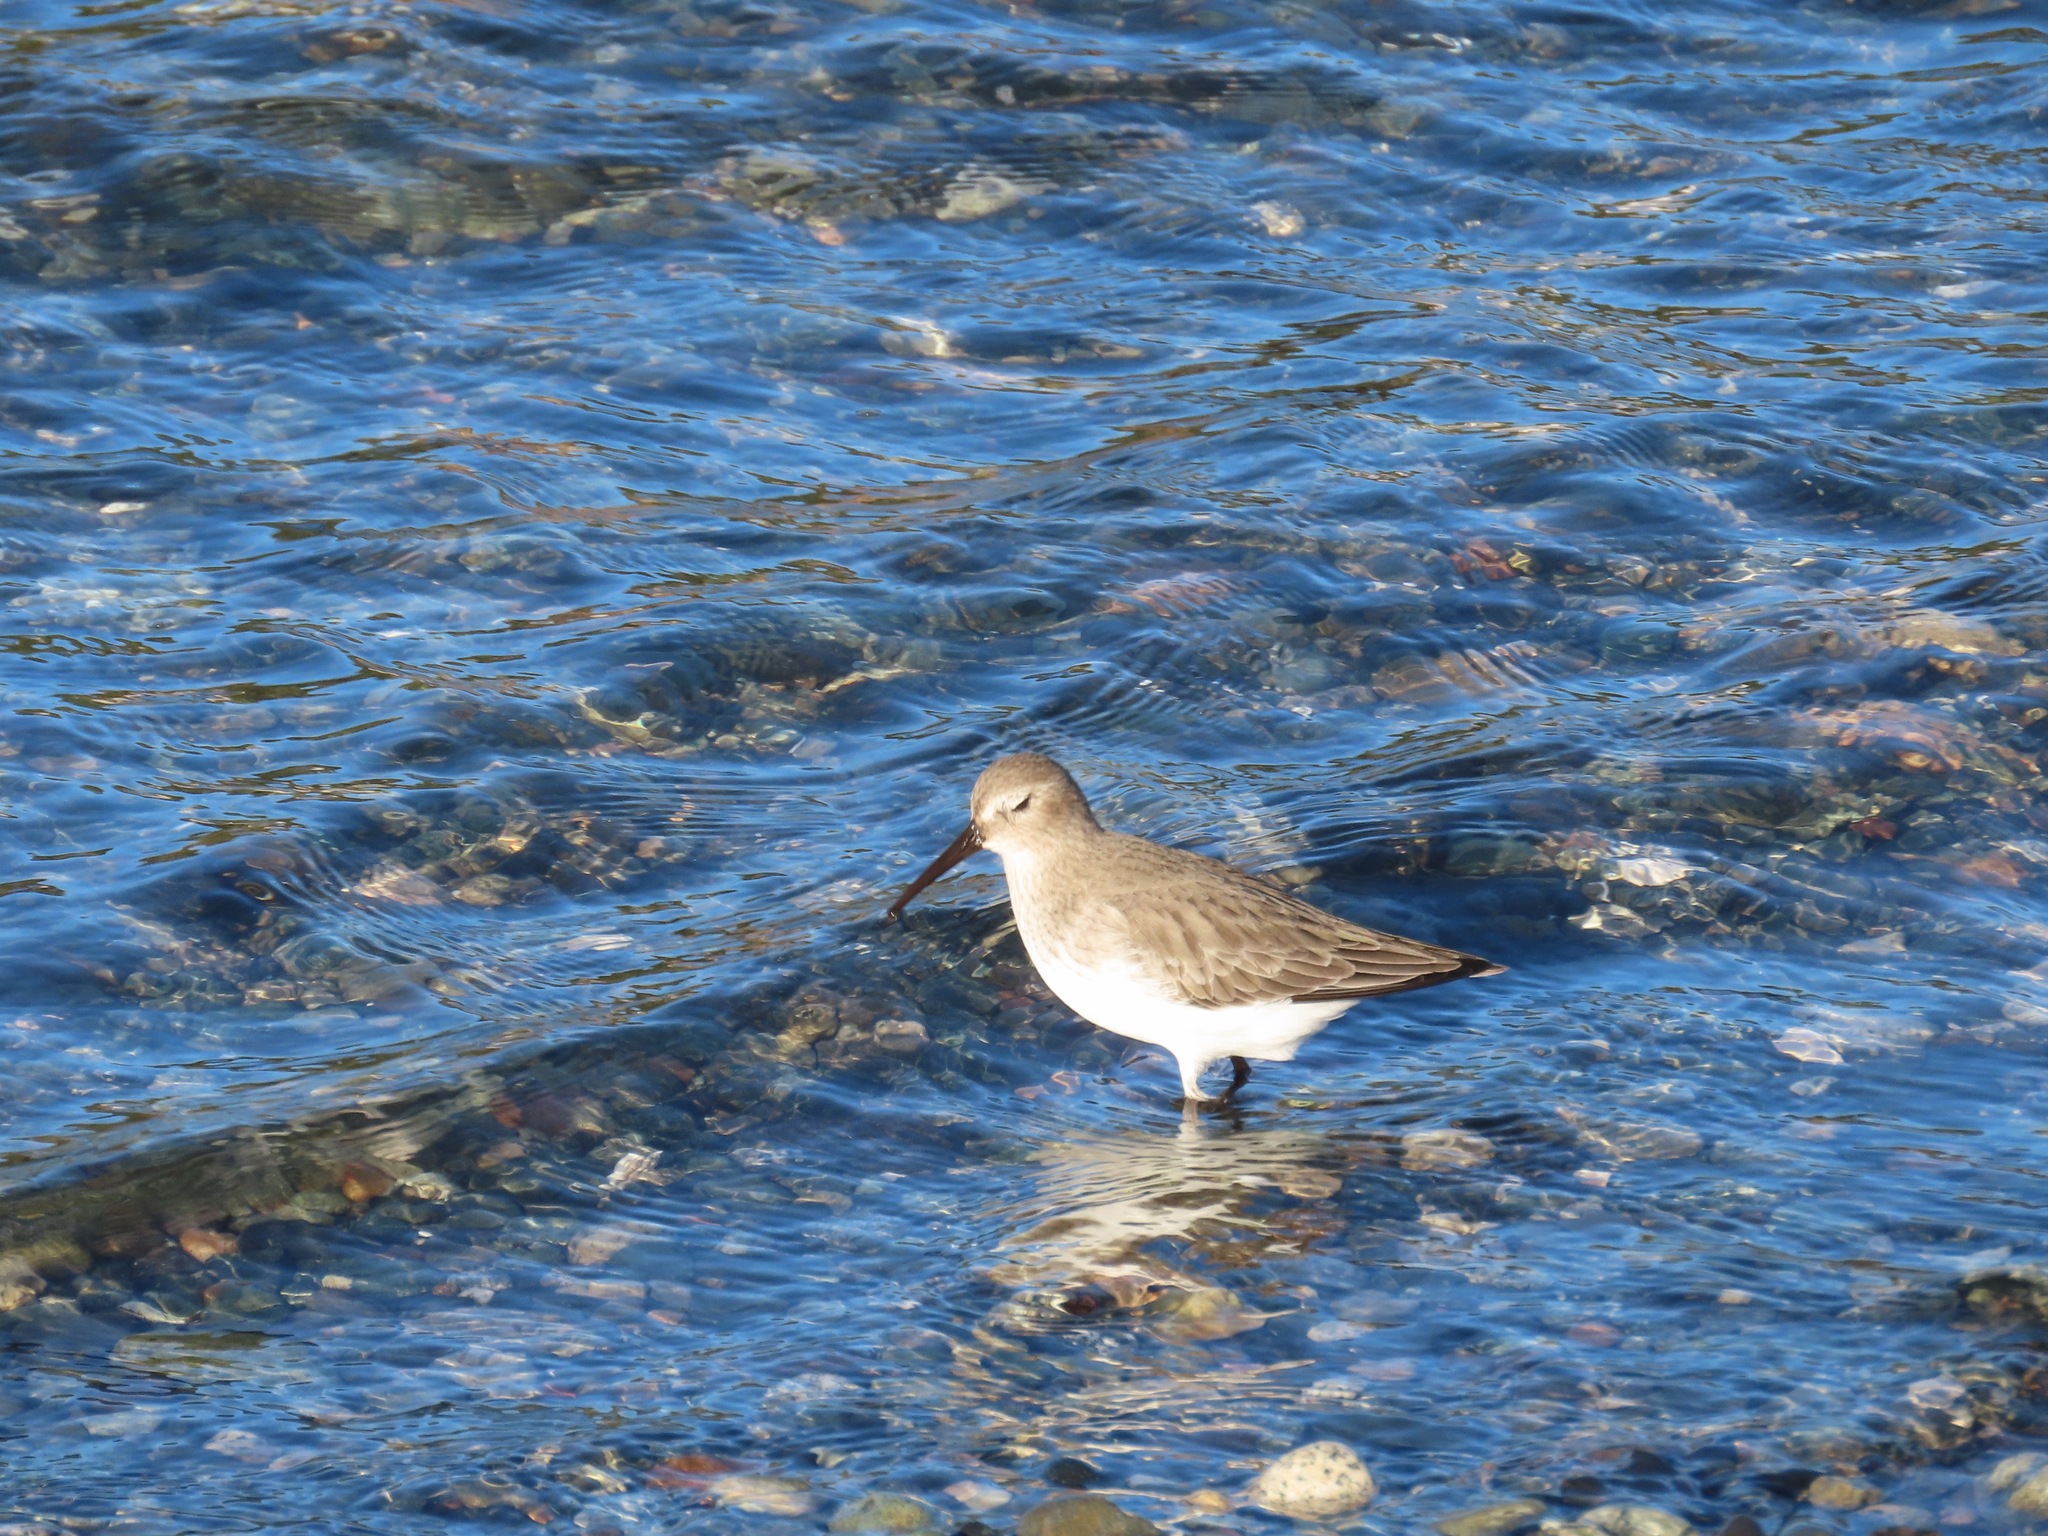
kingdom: Animalia
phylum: Chordata
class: Aves
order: Charadriiformes
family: Scolopacidae
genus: Calidris
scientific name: Calidris alpina
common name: Dunlin
